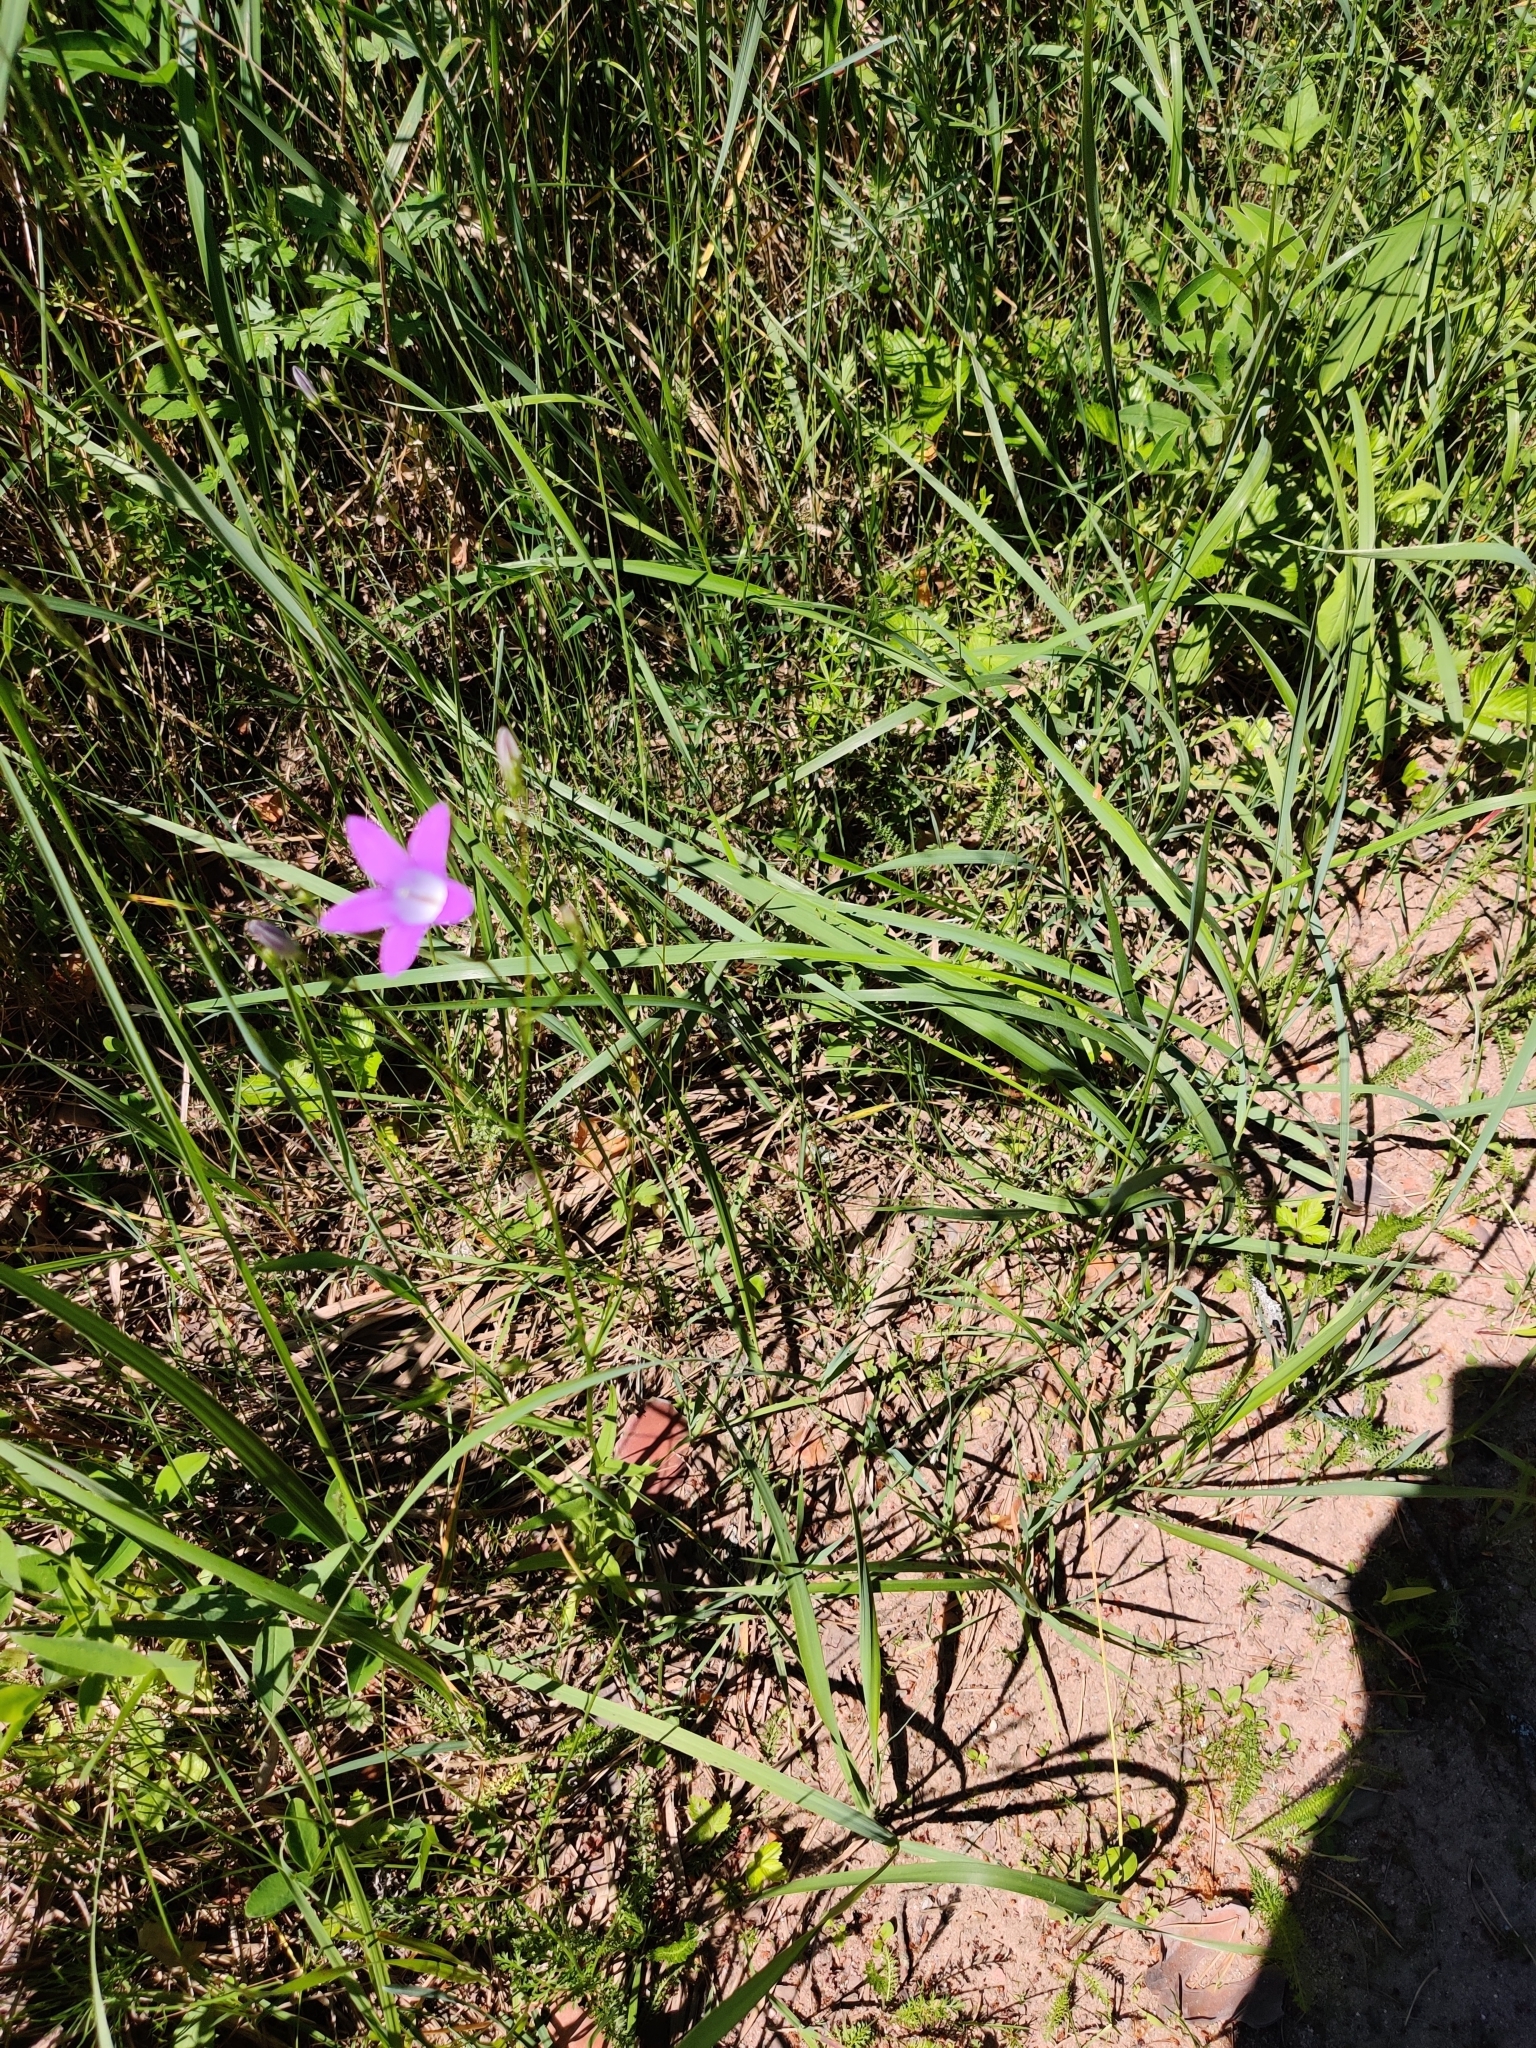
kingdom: Plantae
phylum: Tracheophyta
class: Magnoliopsida
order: Asterales
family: Campanulaceae
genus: Campanula
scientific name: Campanula patula
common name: Spreading bellflower
